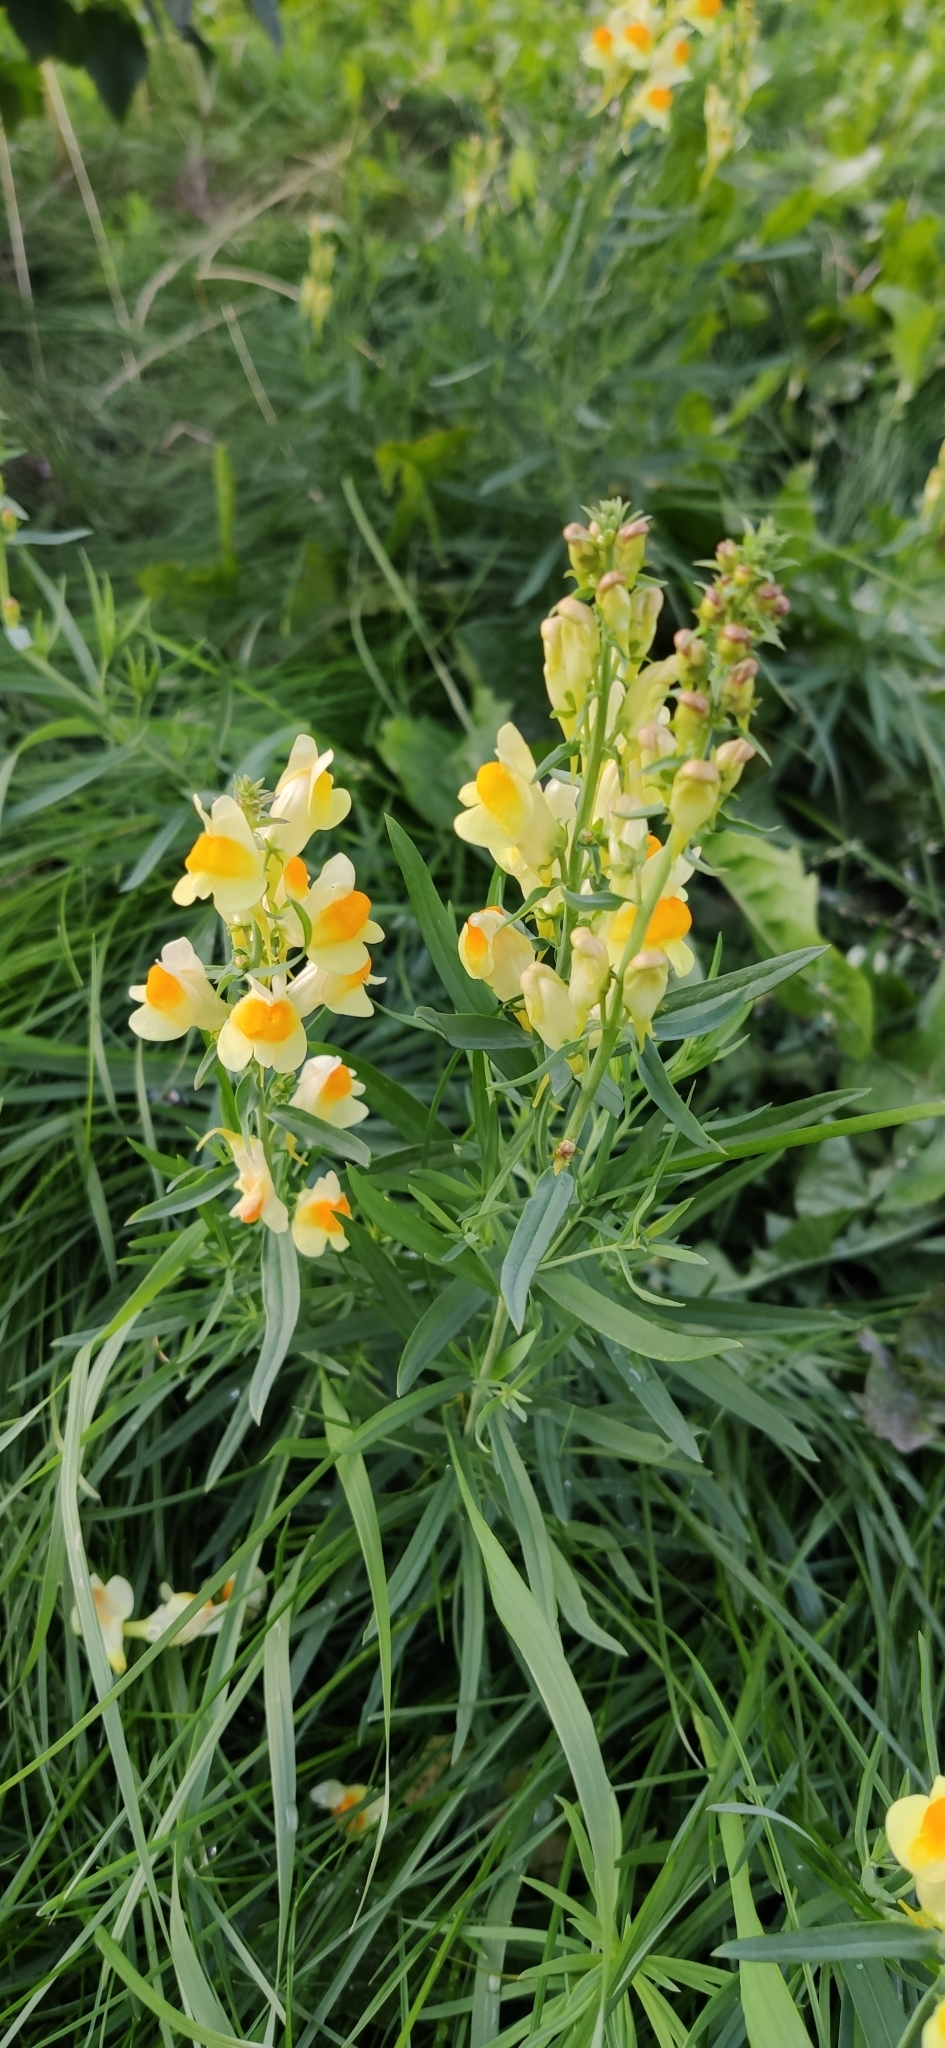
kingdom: Plantae
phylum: Tracheophyta
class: Magnoliopsida
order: Lamiales
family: Plantaginaceae
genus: Linaria
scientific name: Linaria vulgaris
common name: Butter and eggs
